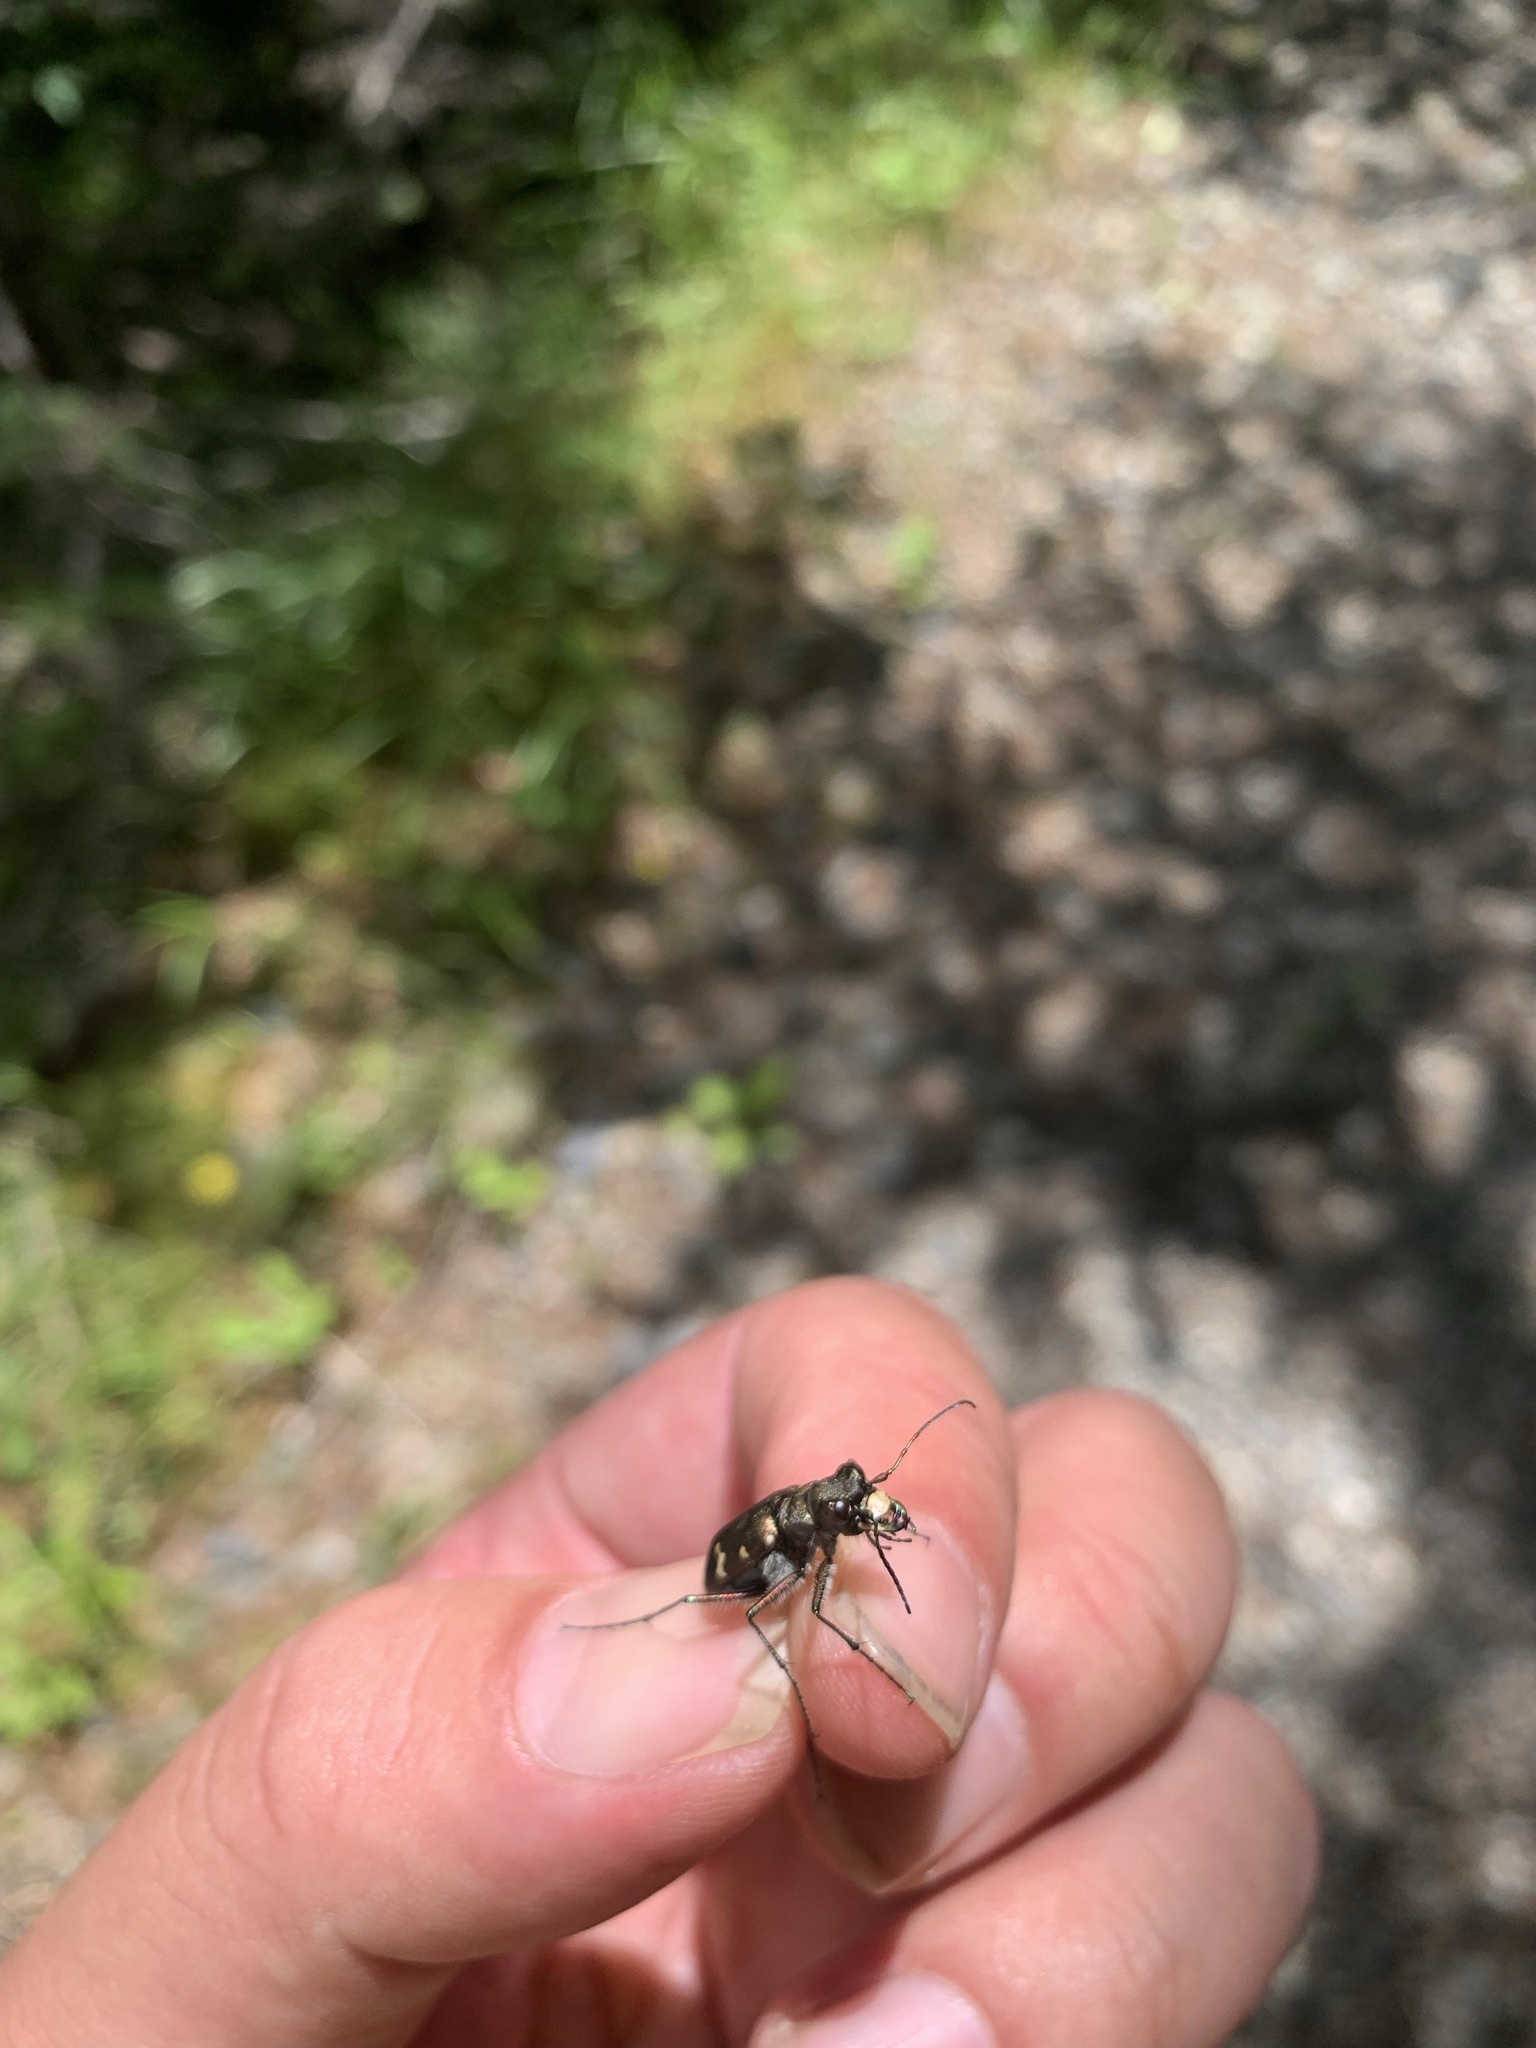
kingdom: Animalia
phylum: Arthropoda
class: Insecta
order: Coleoptera
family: Carabidae
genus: Cicindela
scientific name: Cicindela sachalinensis
